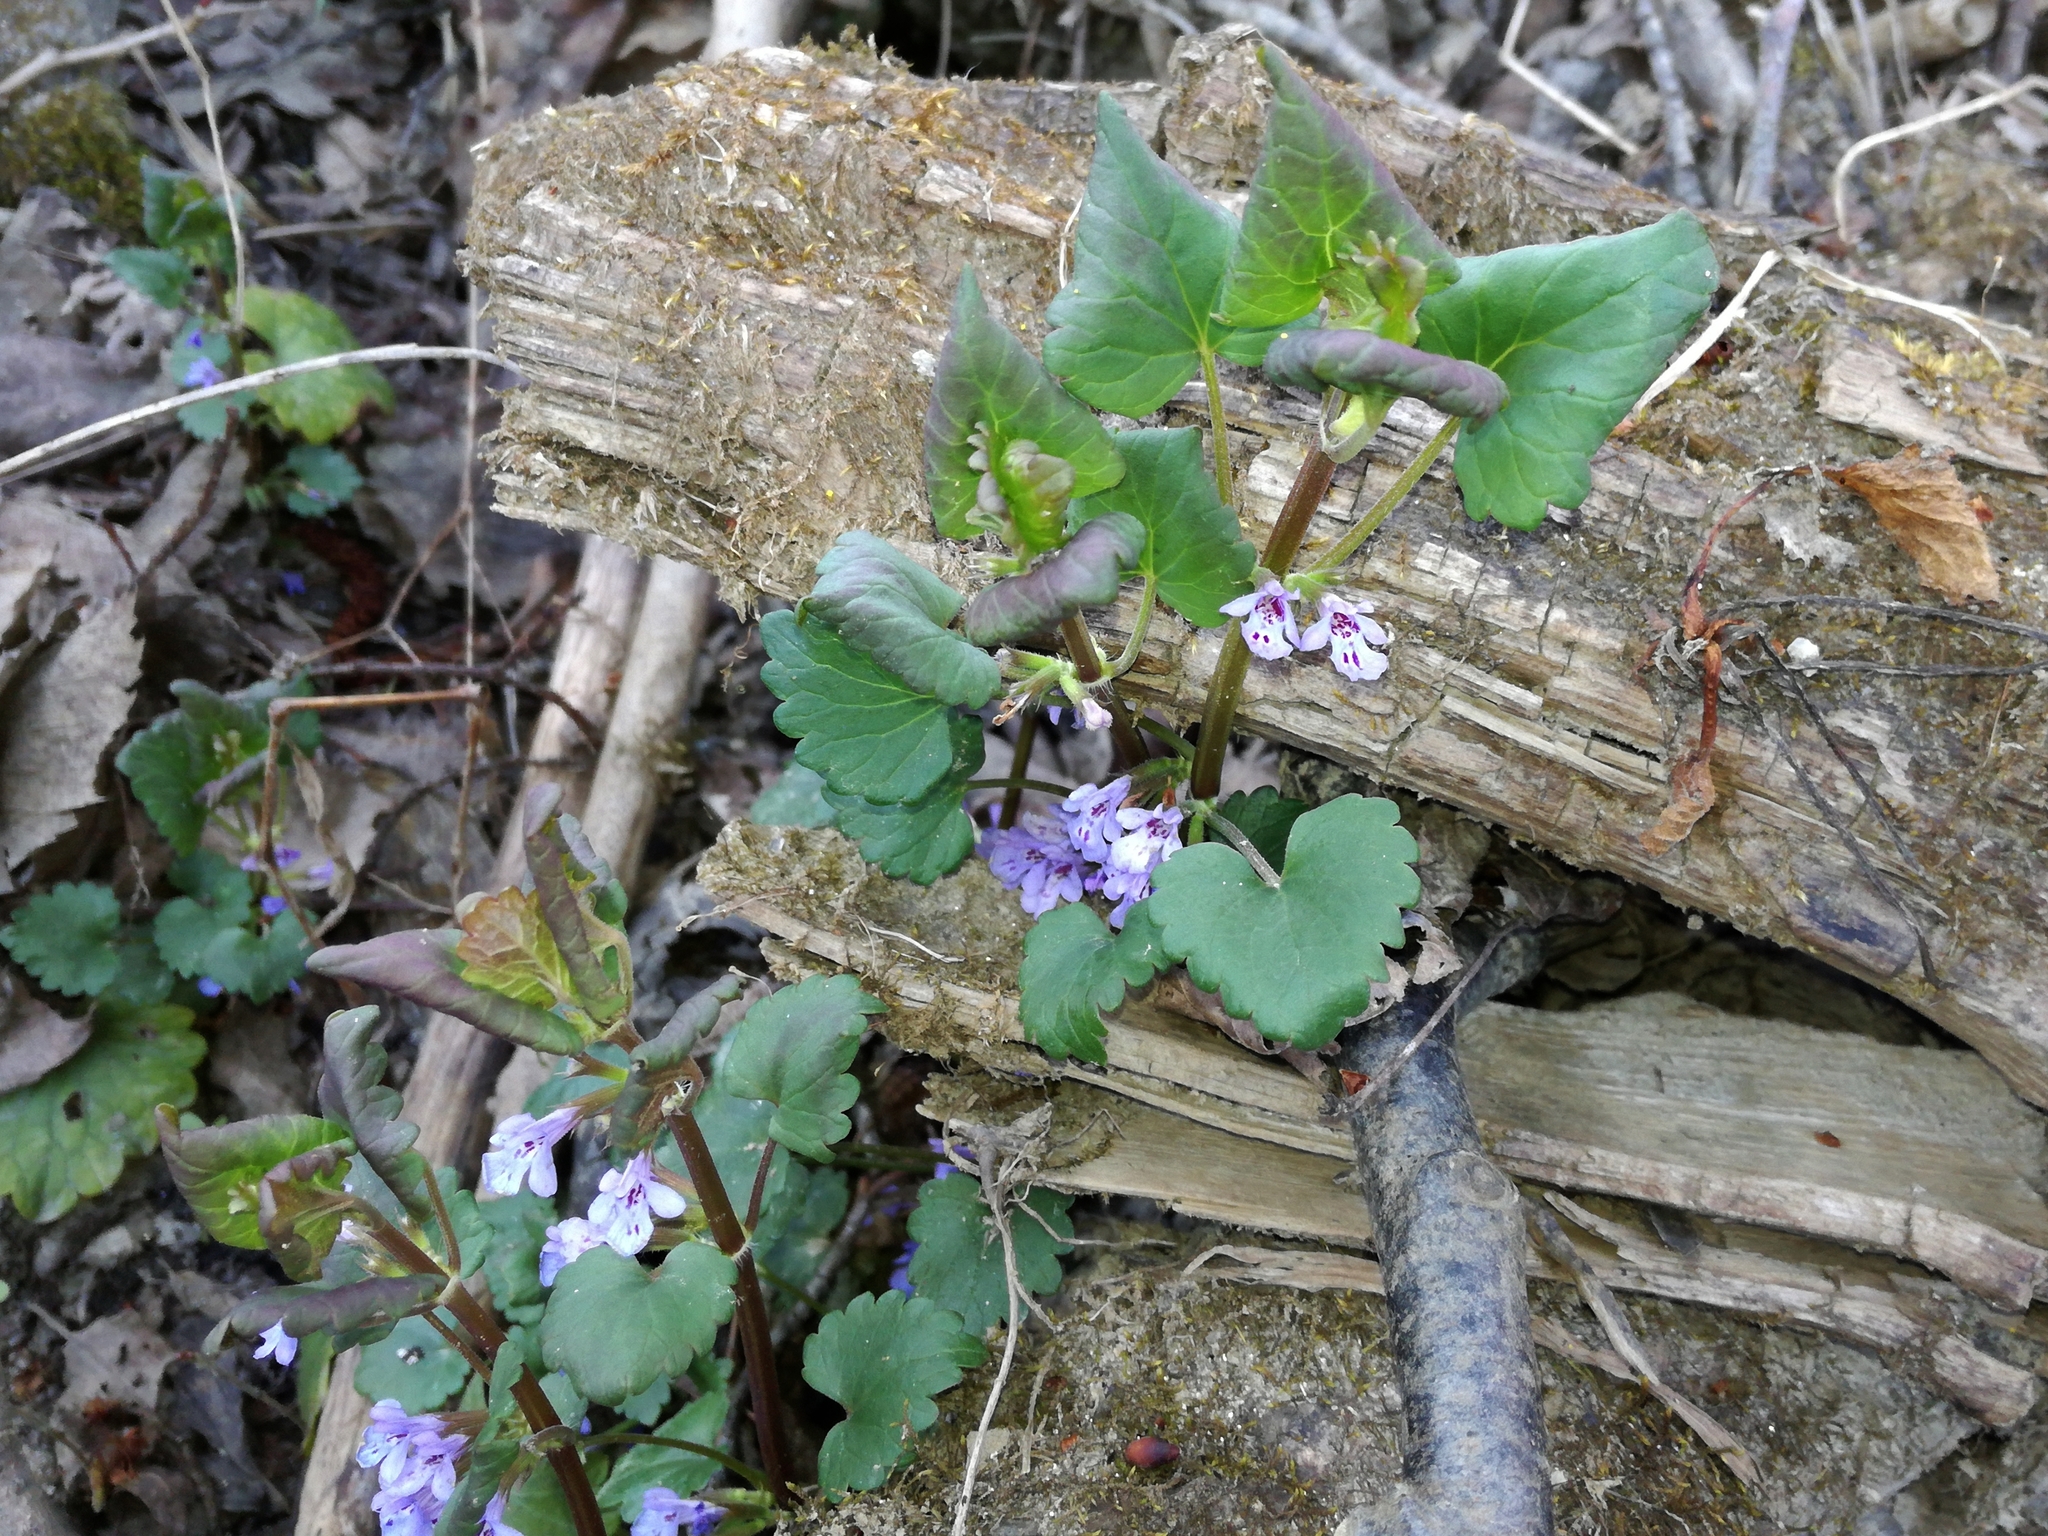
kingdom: Plantae
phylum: Tracheophyta
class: Magnoliopsida
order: Lamiales
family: Lamiaceae
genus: Glechoma
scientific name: Glechoma hederacea
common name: Ground ivy
